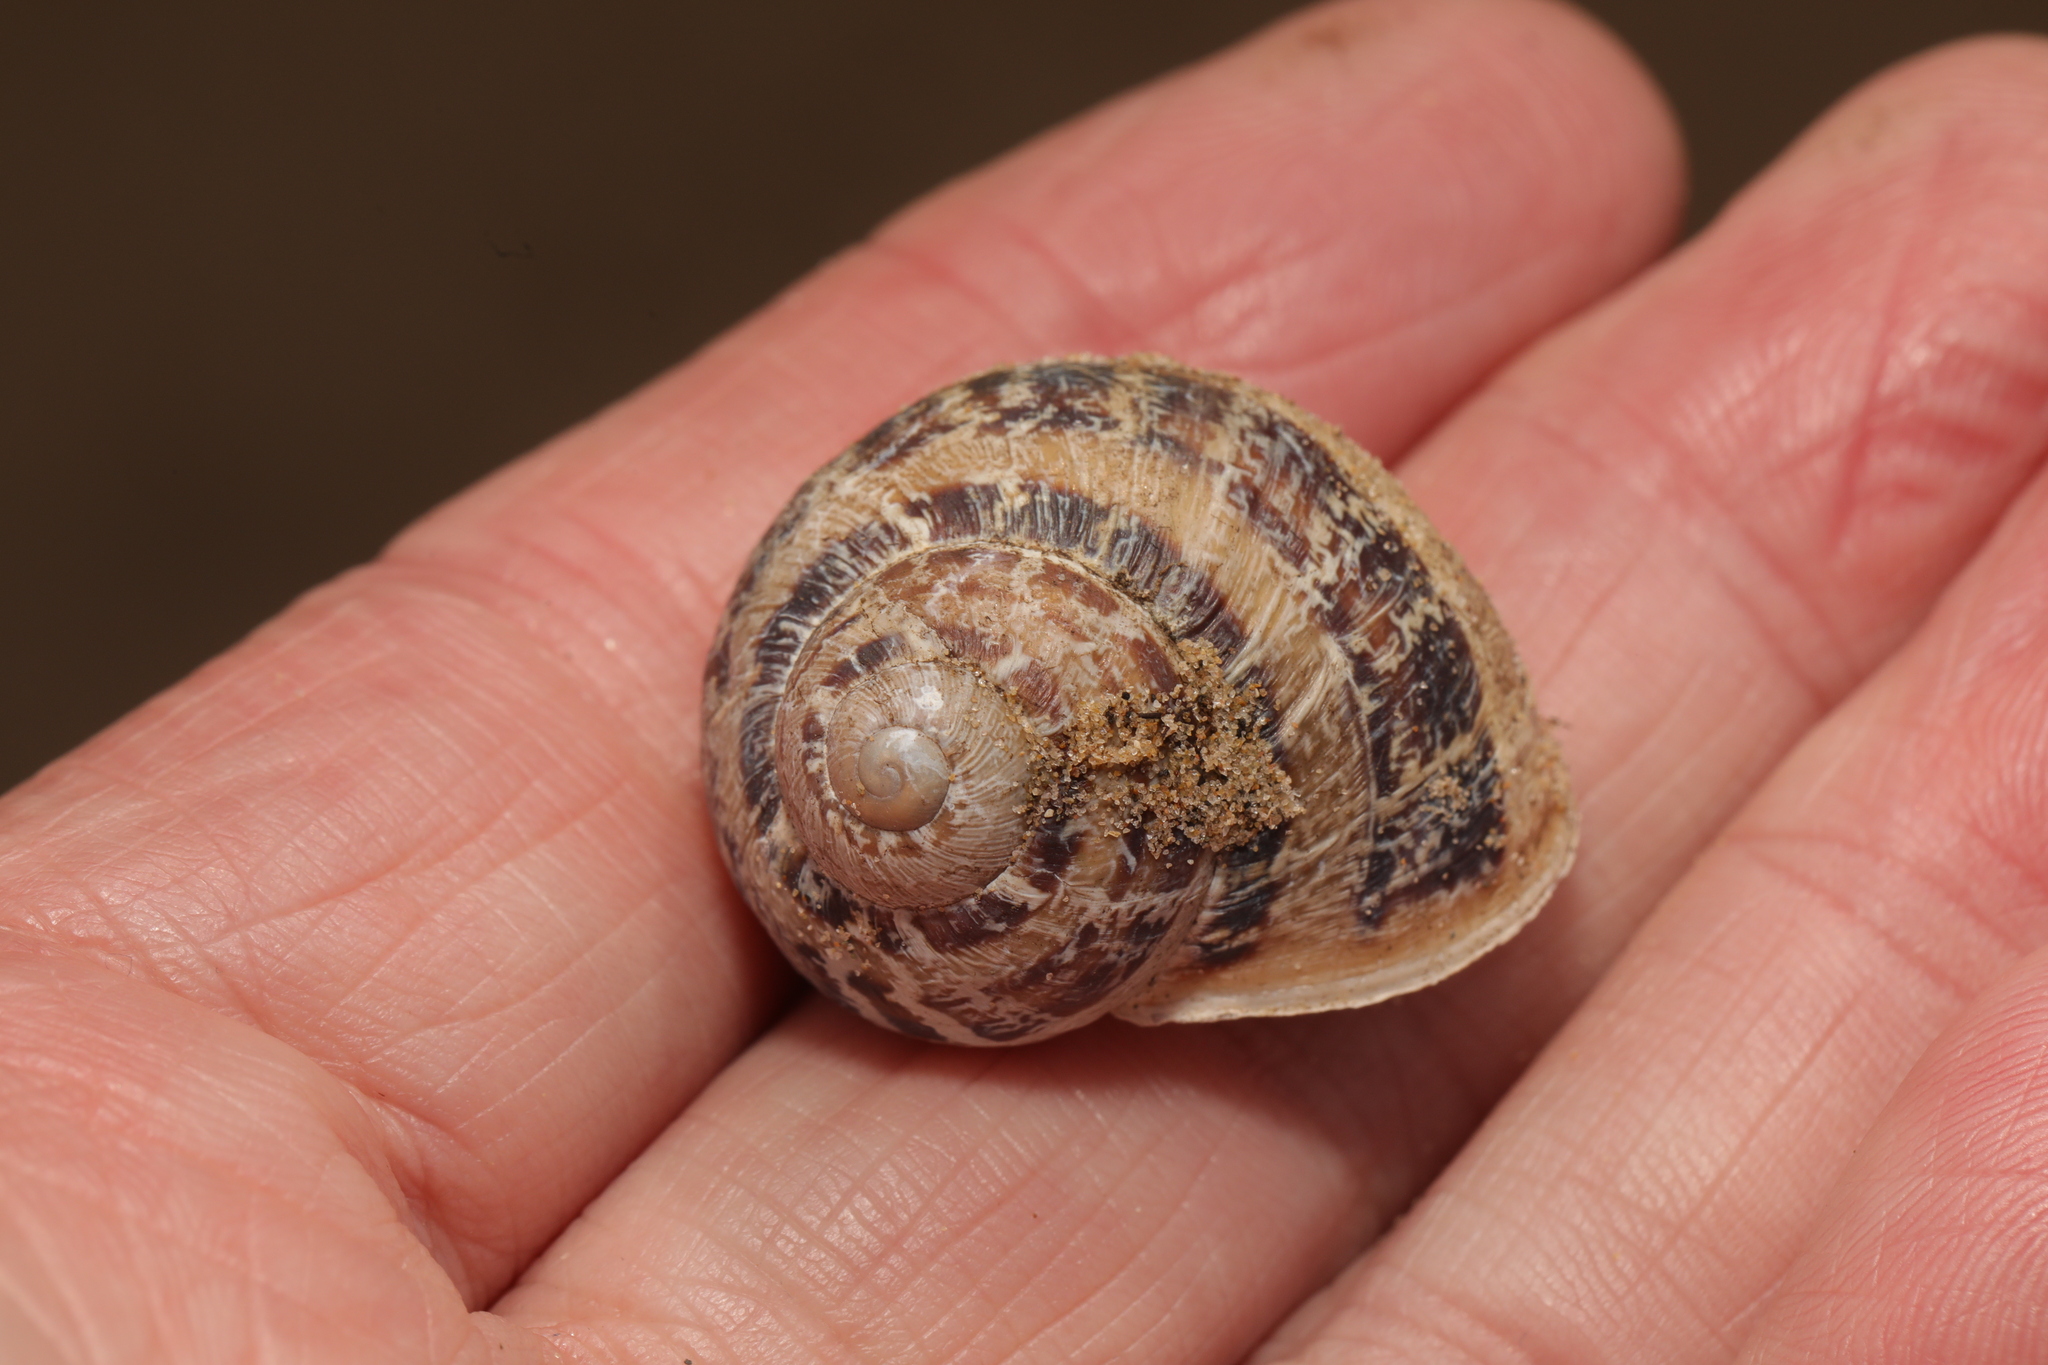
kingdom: Animalia
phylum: Mollusca
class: Gastropoda
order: Stylommatophora
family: Helicidae
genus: Cornu
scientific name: Cornu aspersum
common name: Brown garden snail
